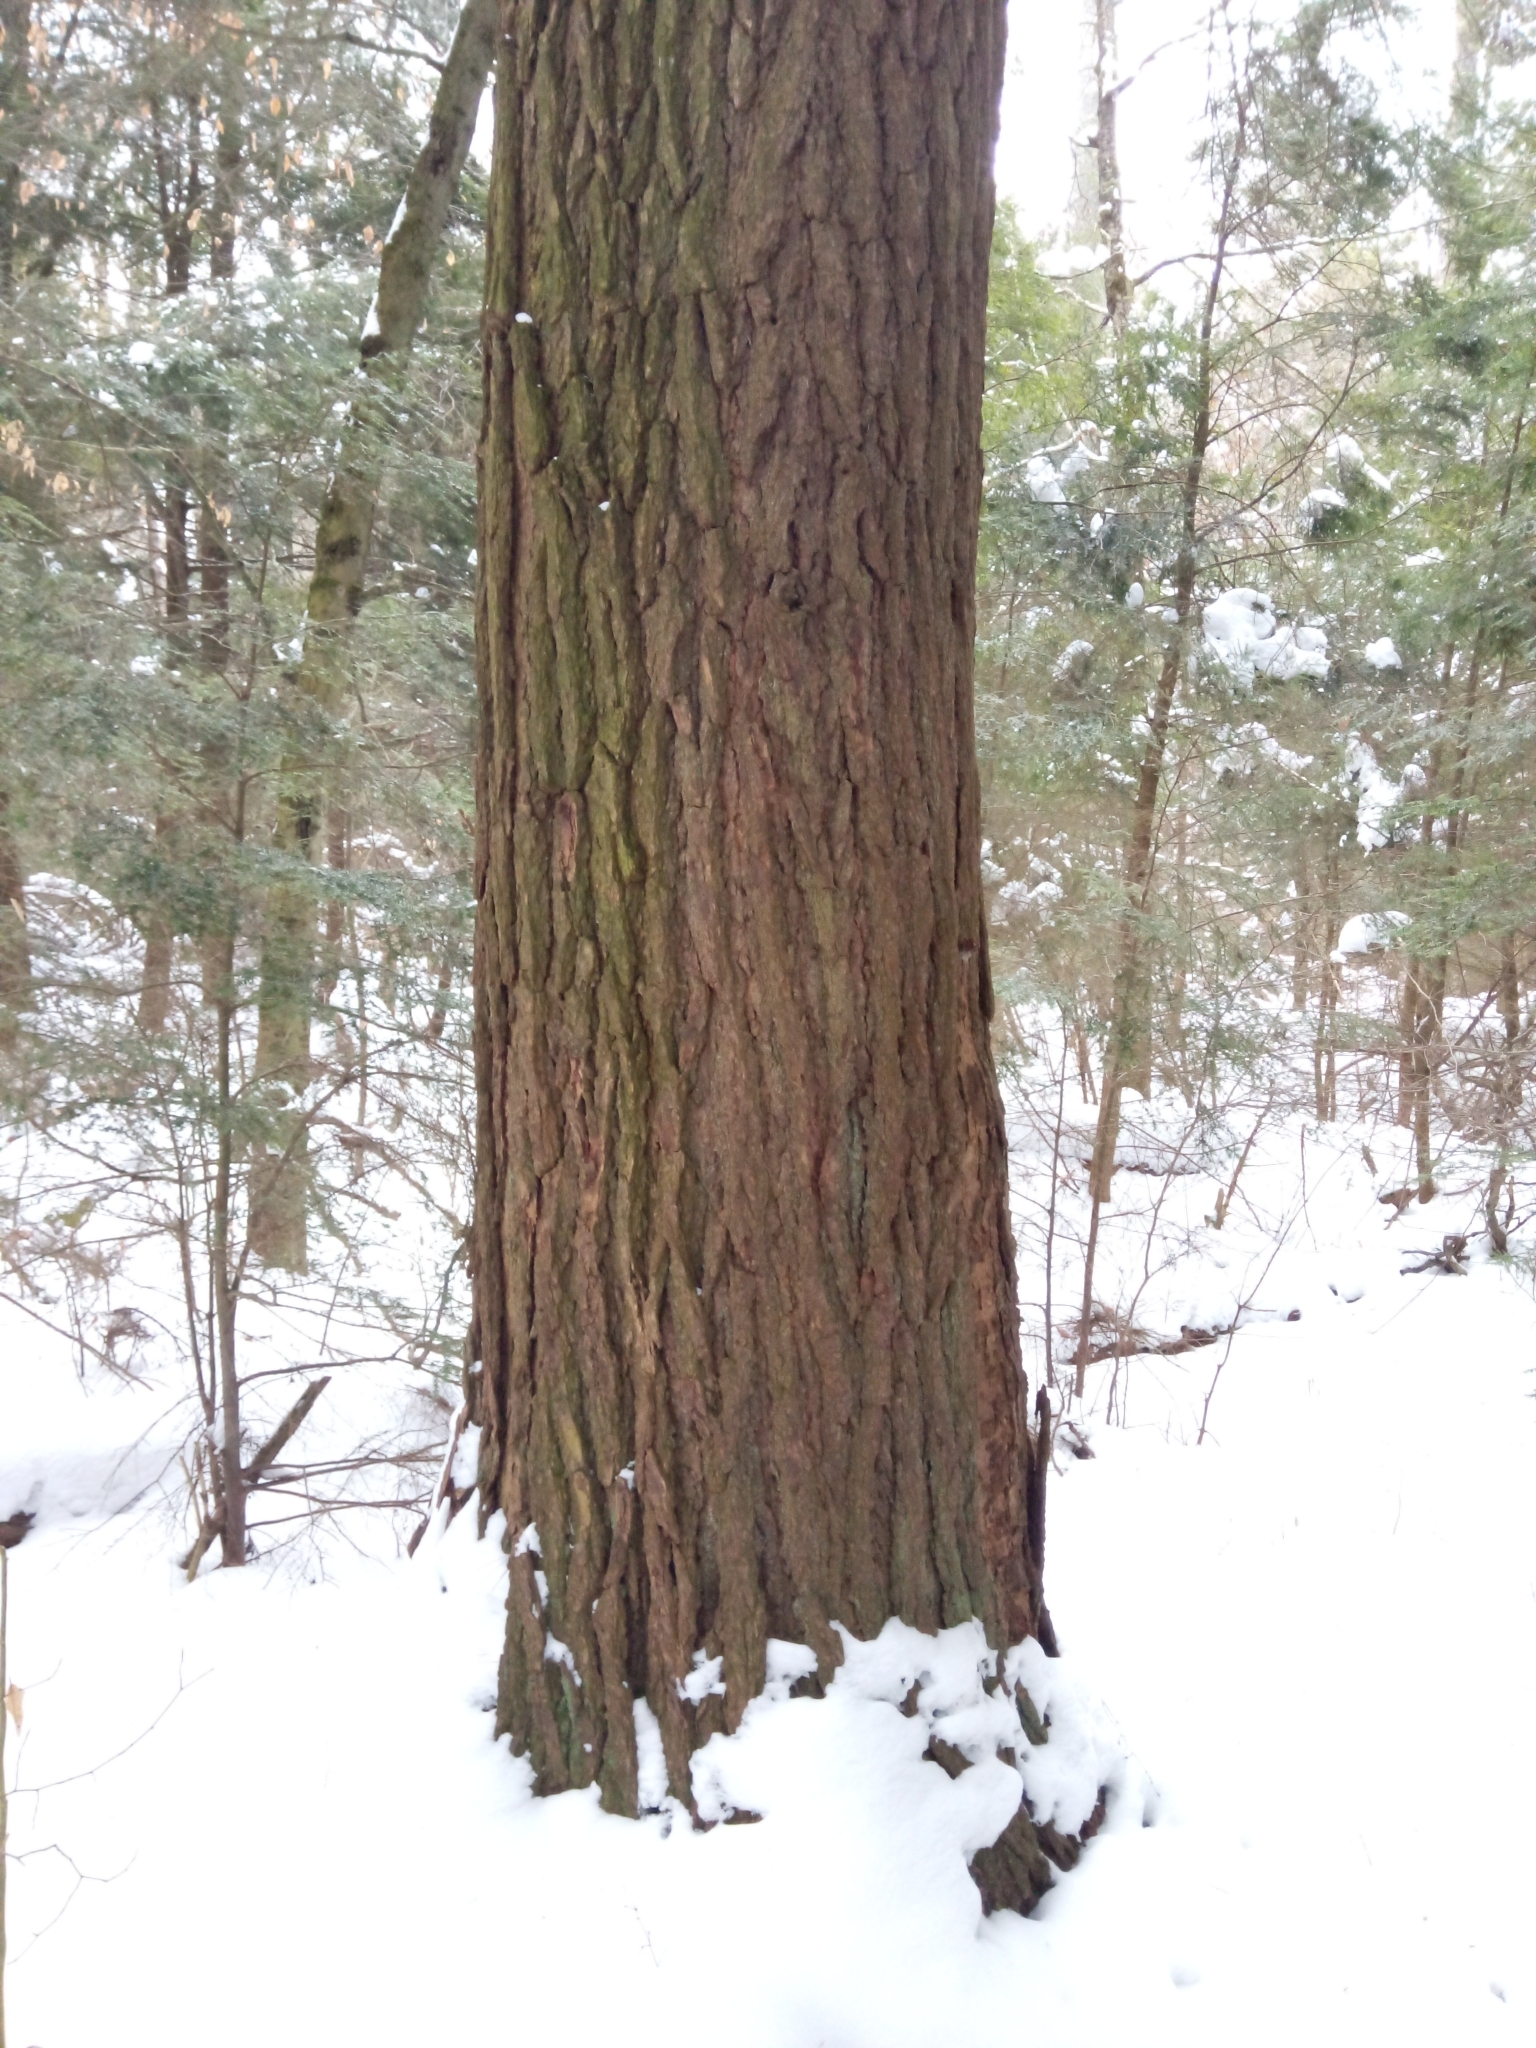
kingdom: Plantae
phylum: Tracheophyta
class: Pinopsida
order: Pinales
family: Pinaceae
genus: Tsuga
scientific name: Tsuga canadensis
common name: Eastern hemlock
